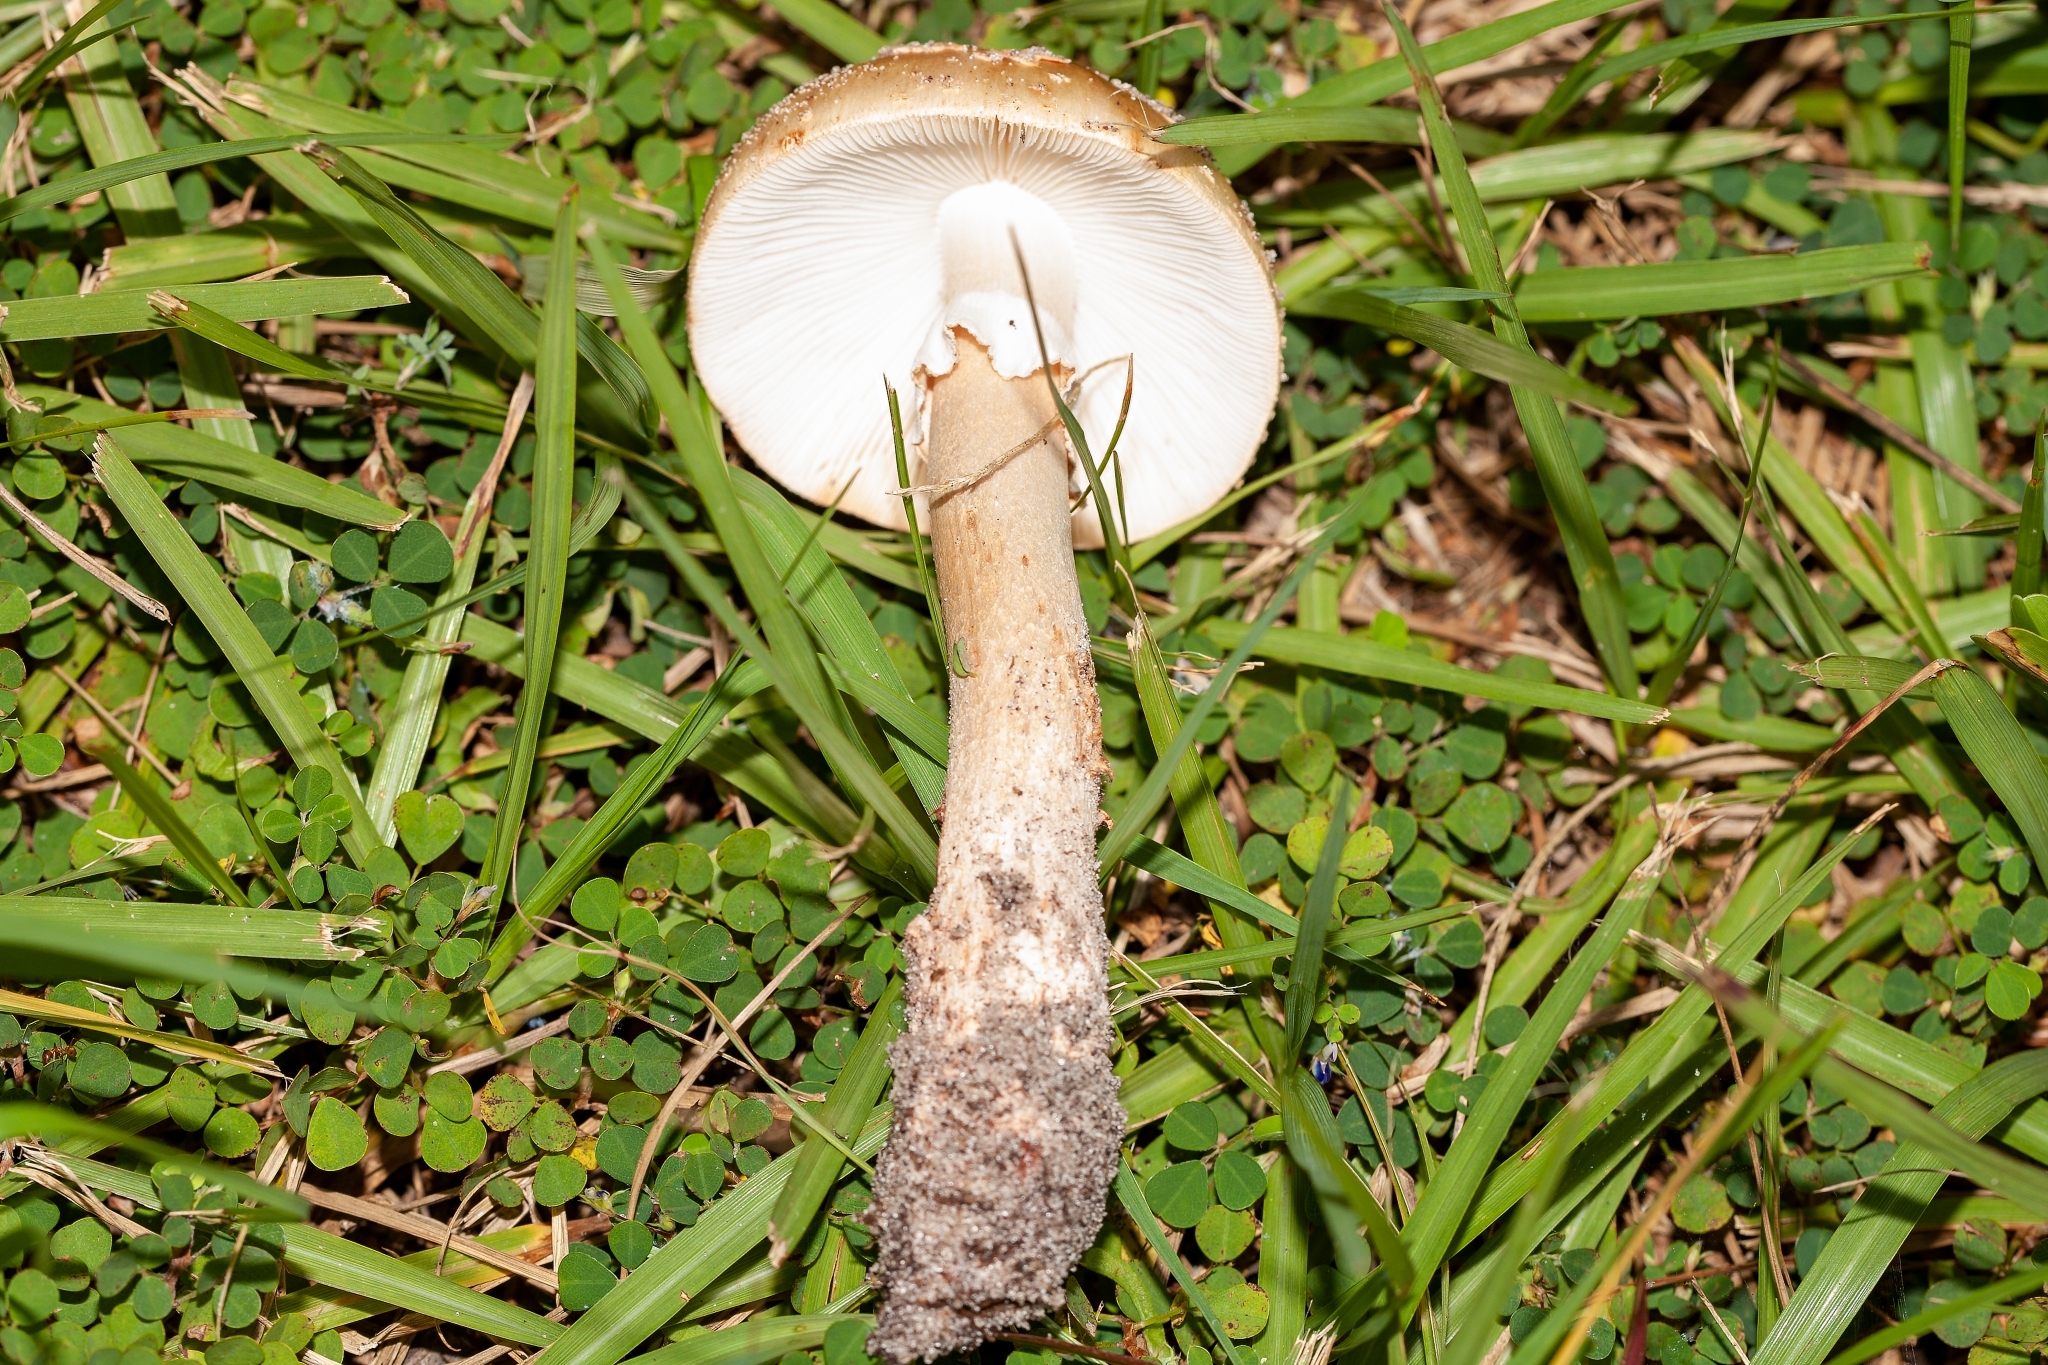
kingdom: Fungi
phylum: Basidiomycota
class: Agaricomycetes
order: Agaricales
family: Amanitaceae
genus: Amanita
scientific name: Amanita rubescens
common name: Blusher
